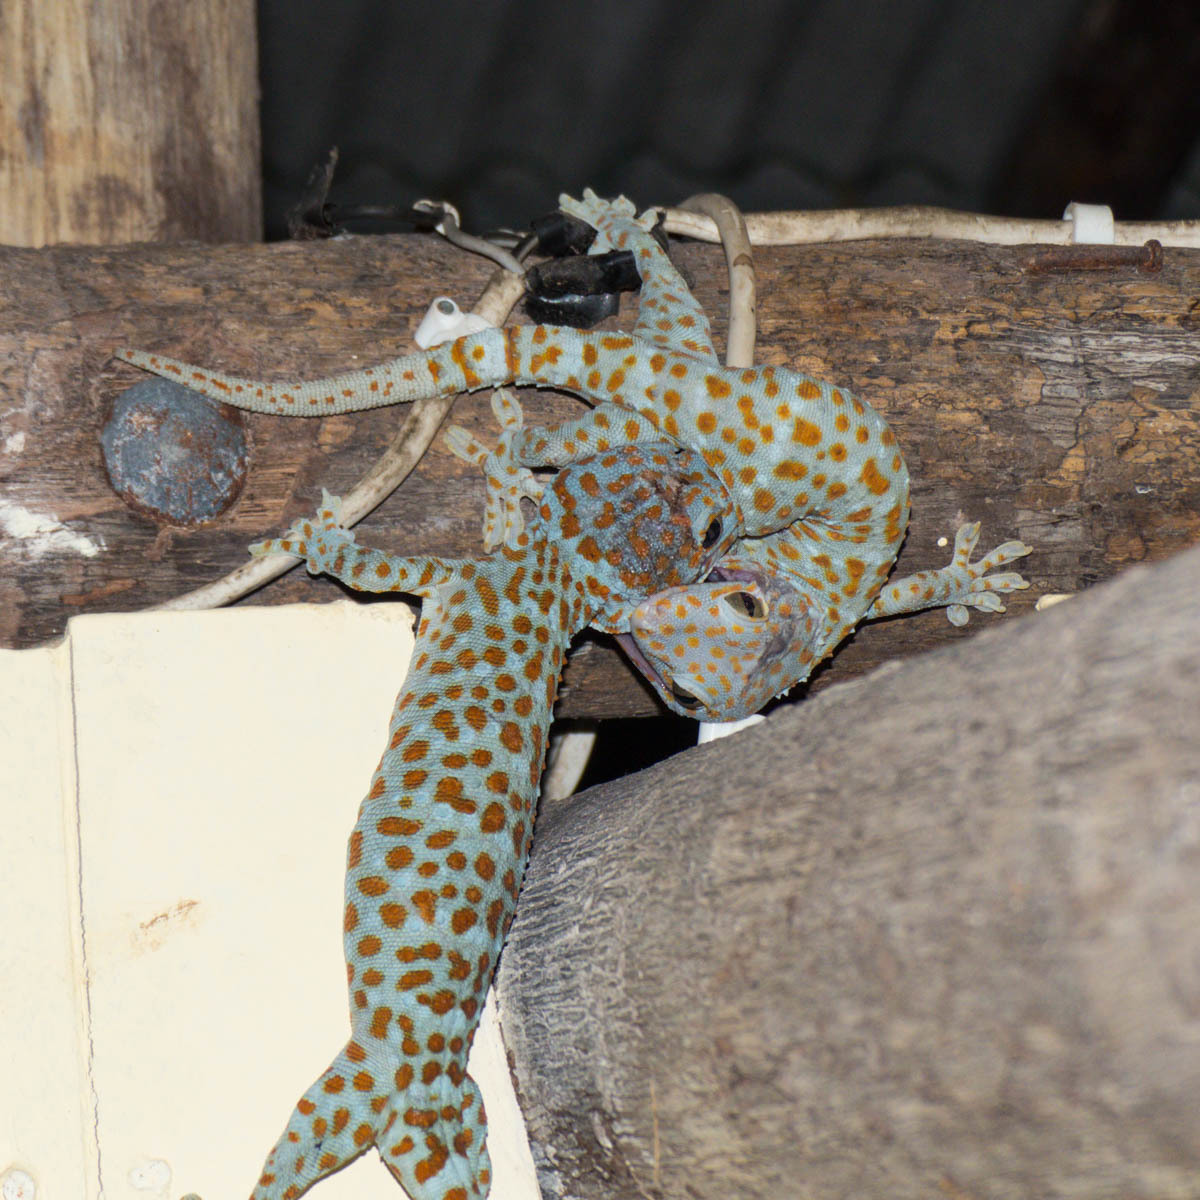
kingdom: Animalia
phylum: Chordata
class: Squamata
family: Gekkonidae
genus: Gekko
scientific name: Gekko gecko
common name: Tokay gecko
